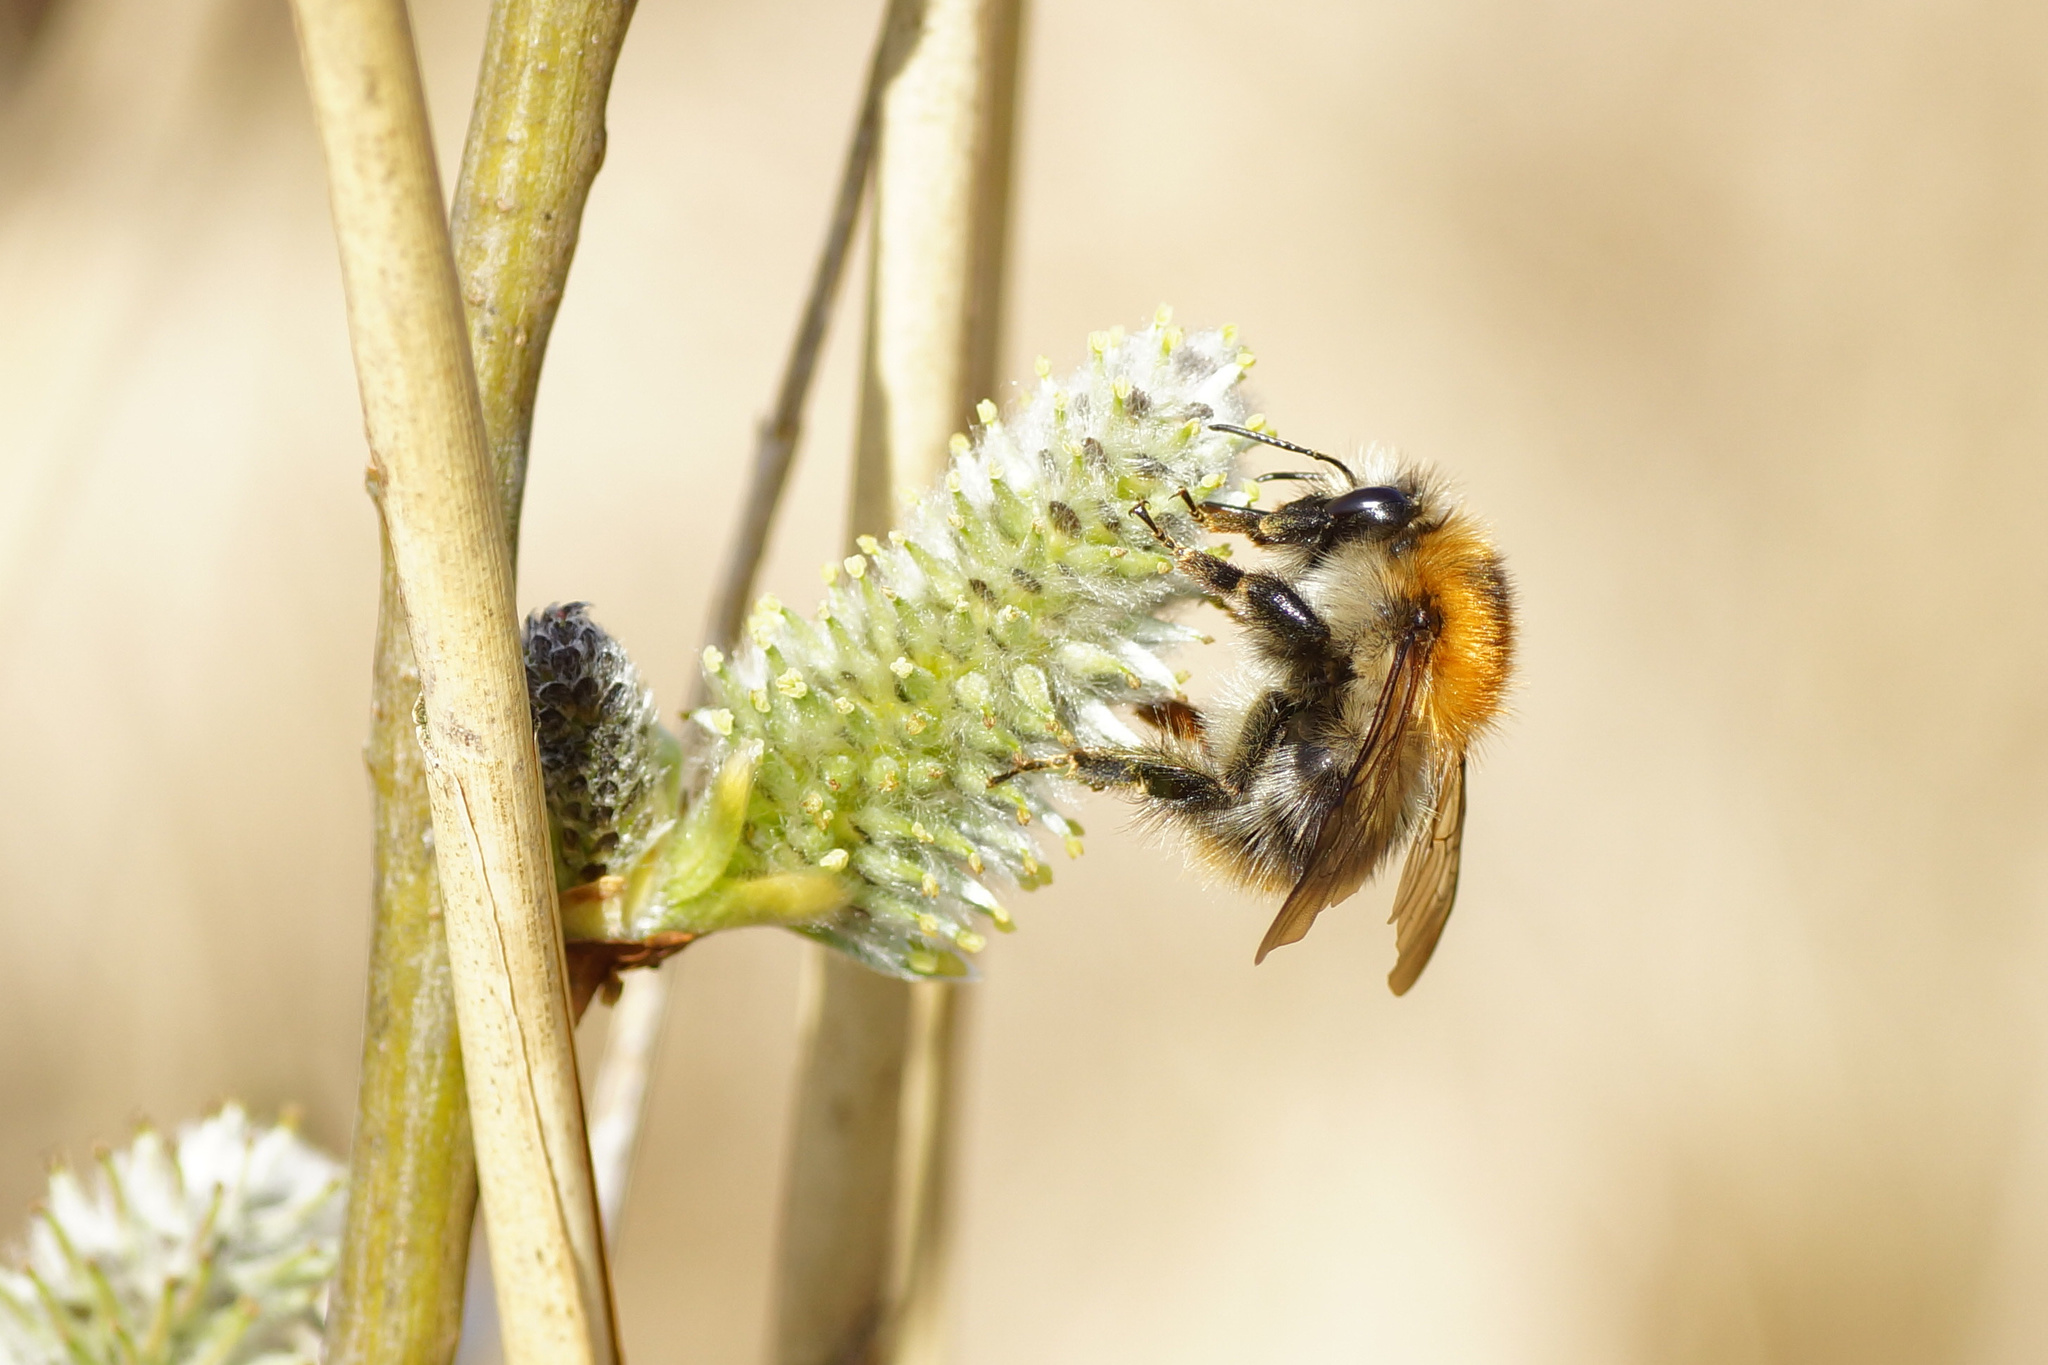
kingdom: Animalia
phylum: Arthropoda
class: Insecta
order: Hymenoptera
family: Apidae
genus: Bombus
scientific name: Bombus pascuorum
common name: Common carder bee
